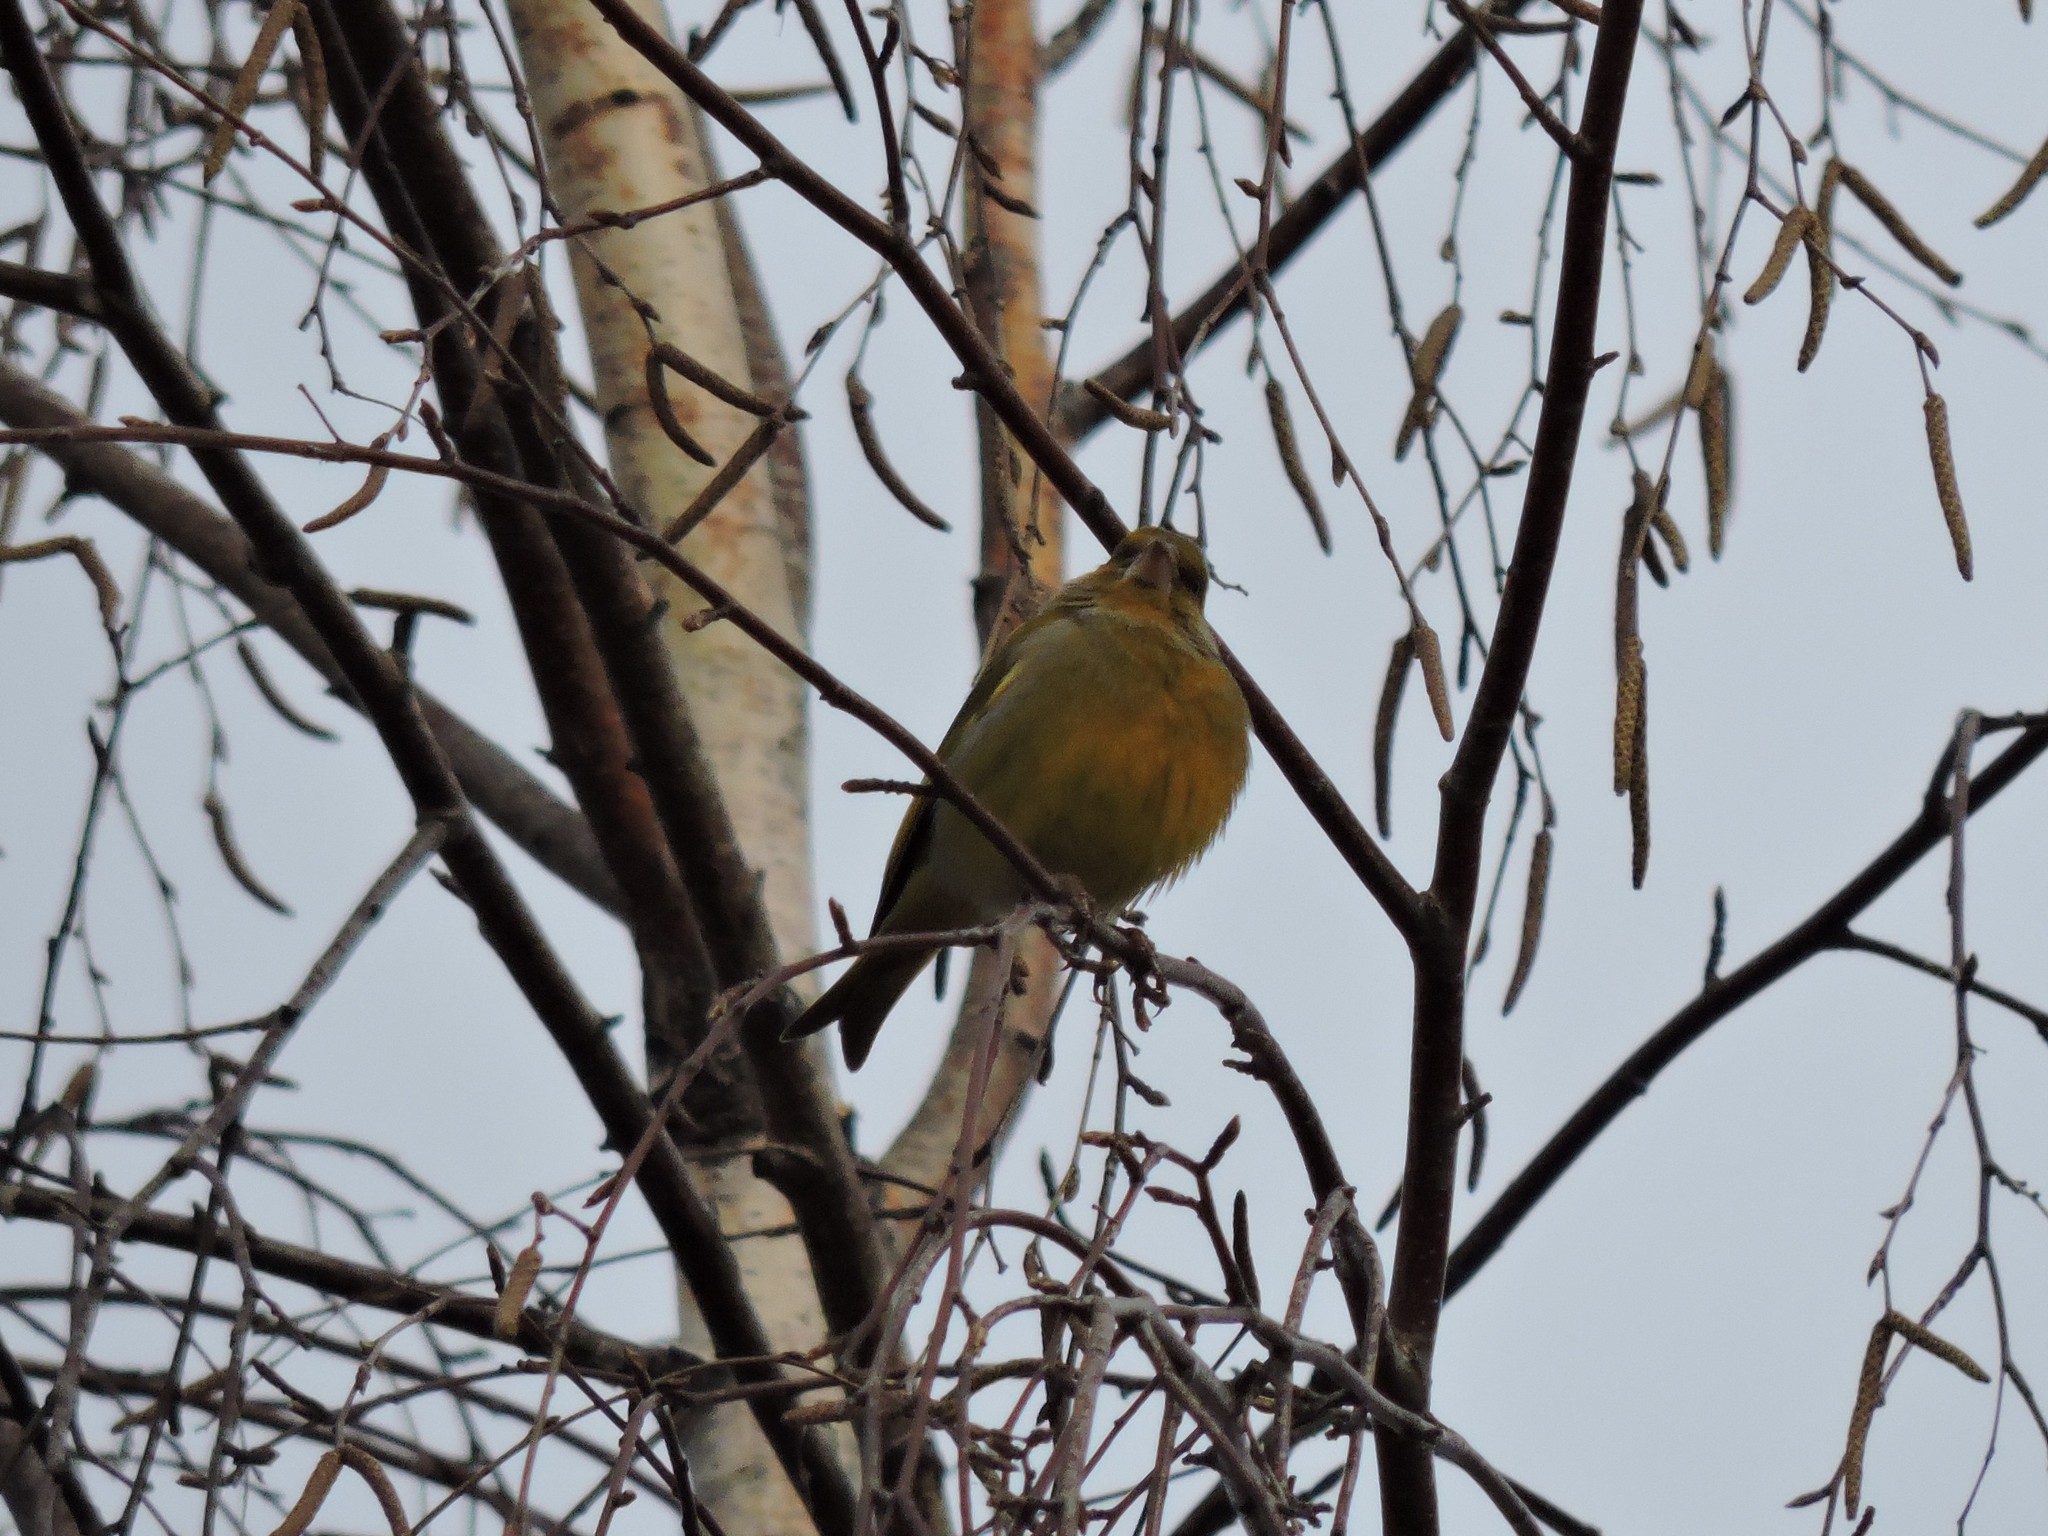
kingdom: Plantae
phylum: Tracheophyta
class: Liliopsida
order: Poales
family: Poaceae
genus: Chloris
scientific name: Chloris chloris
